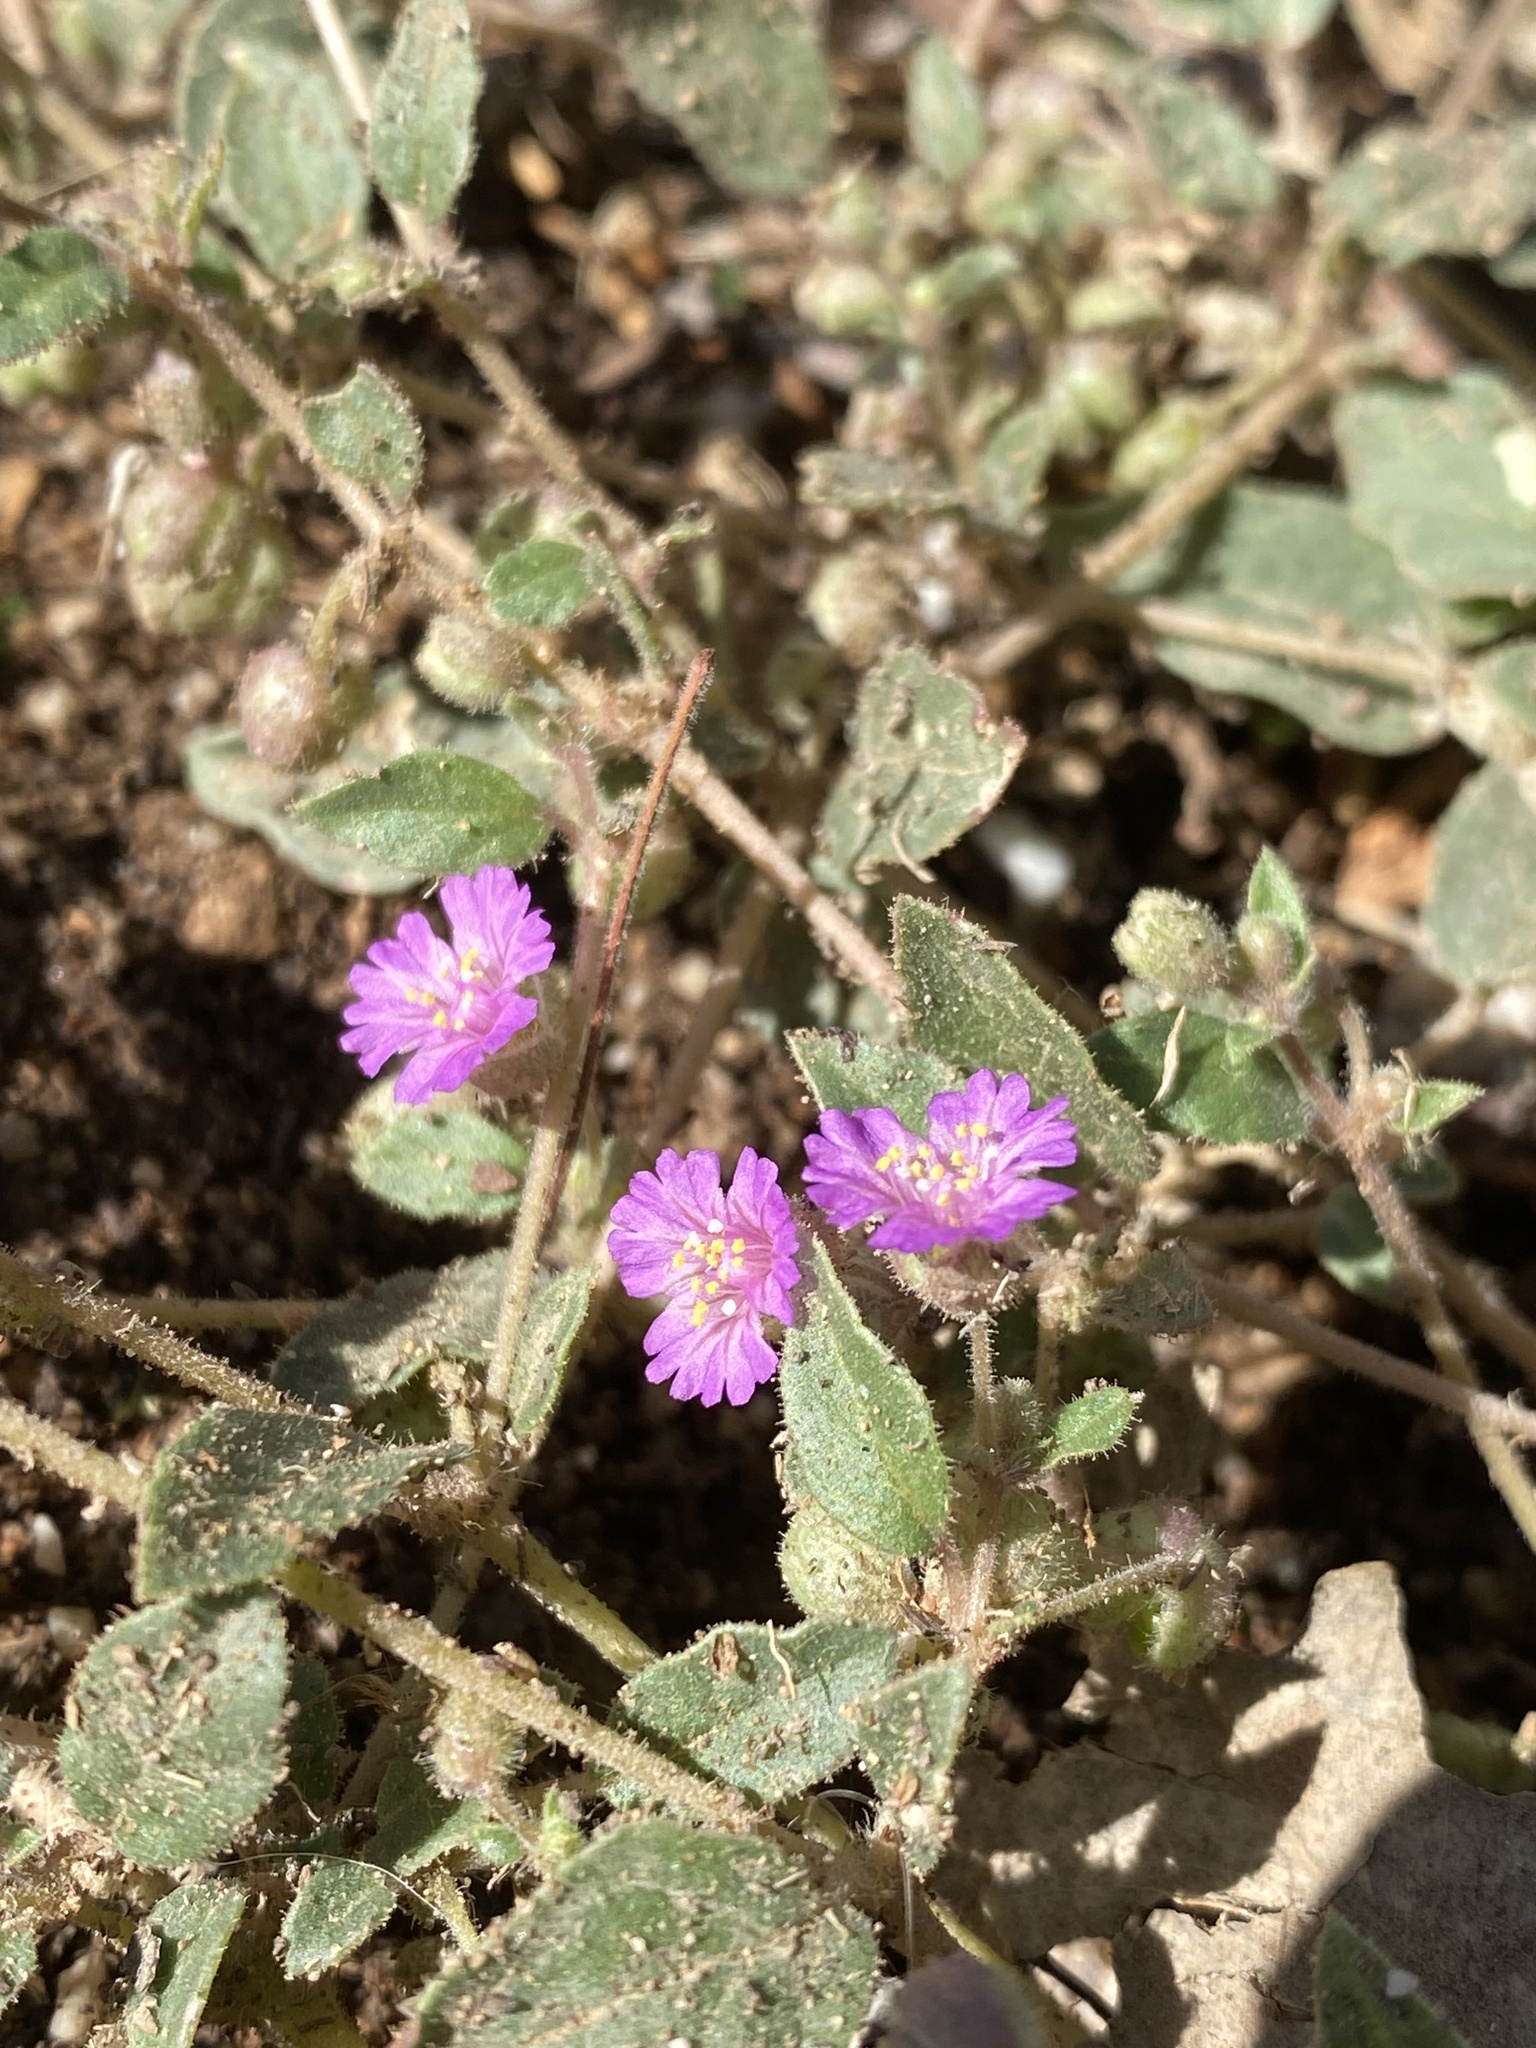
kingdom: Plantae
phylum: Tracheophyta
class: Magnoliopsida
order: Caryophyllales
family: Nyctaginaceae
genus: Allionia
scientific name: Allionia choisyi
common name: Trailing-four-o'clock
